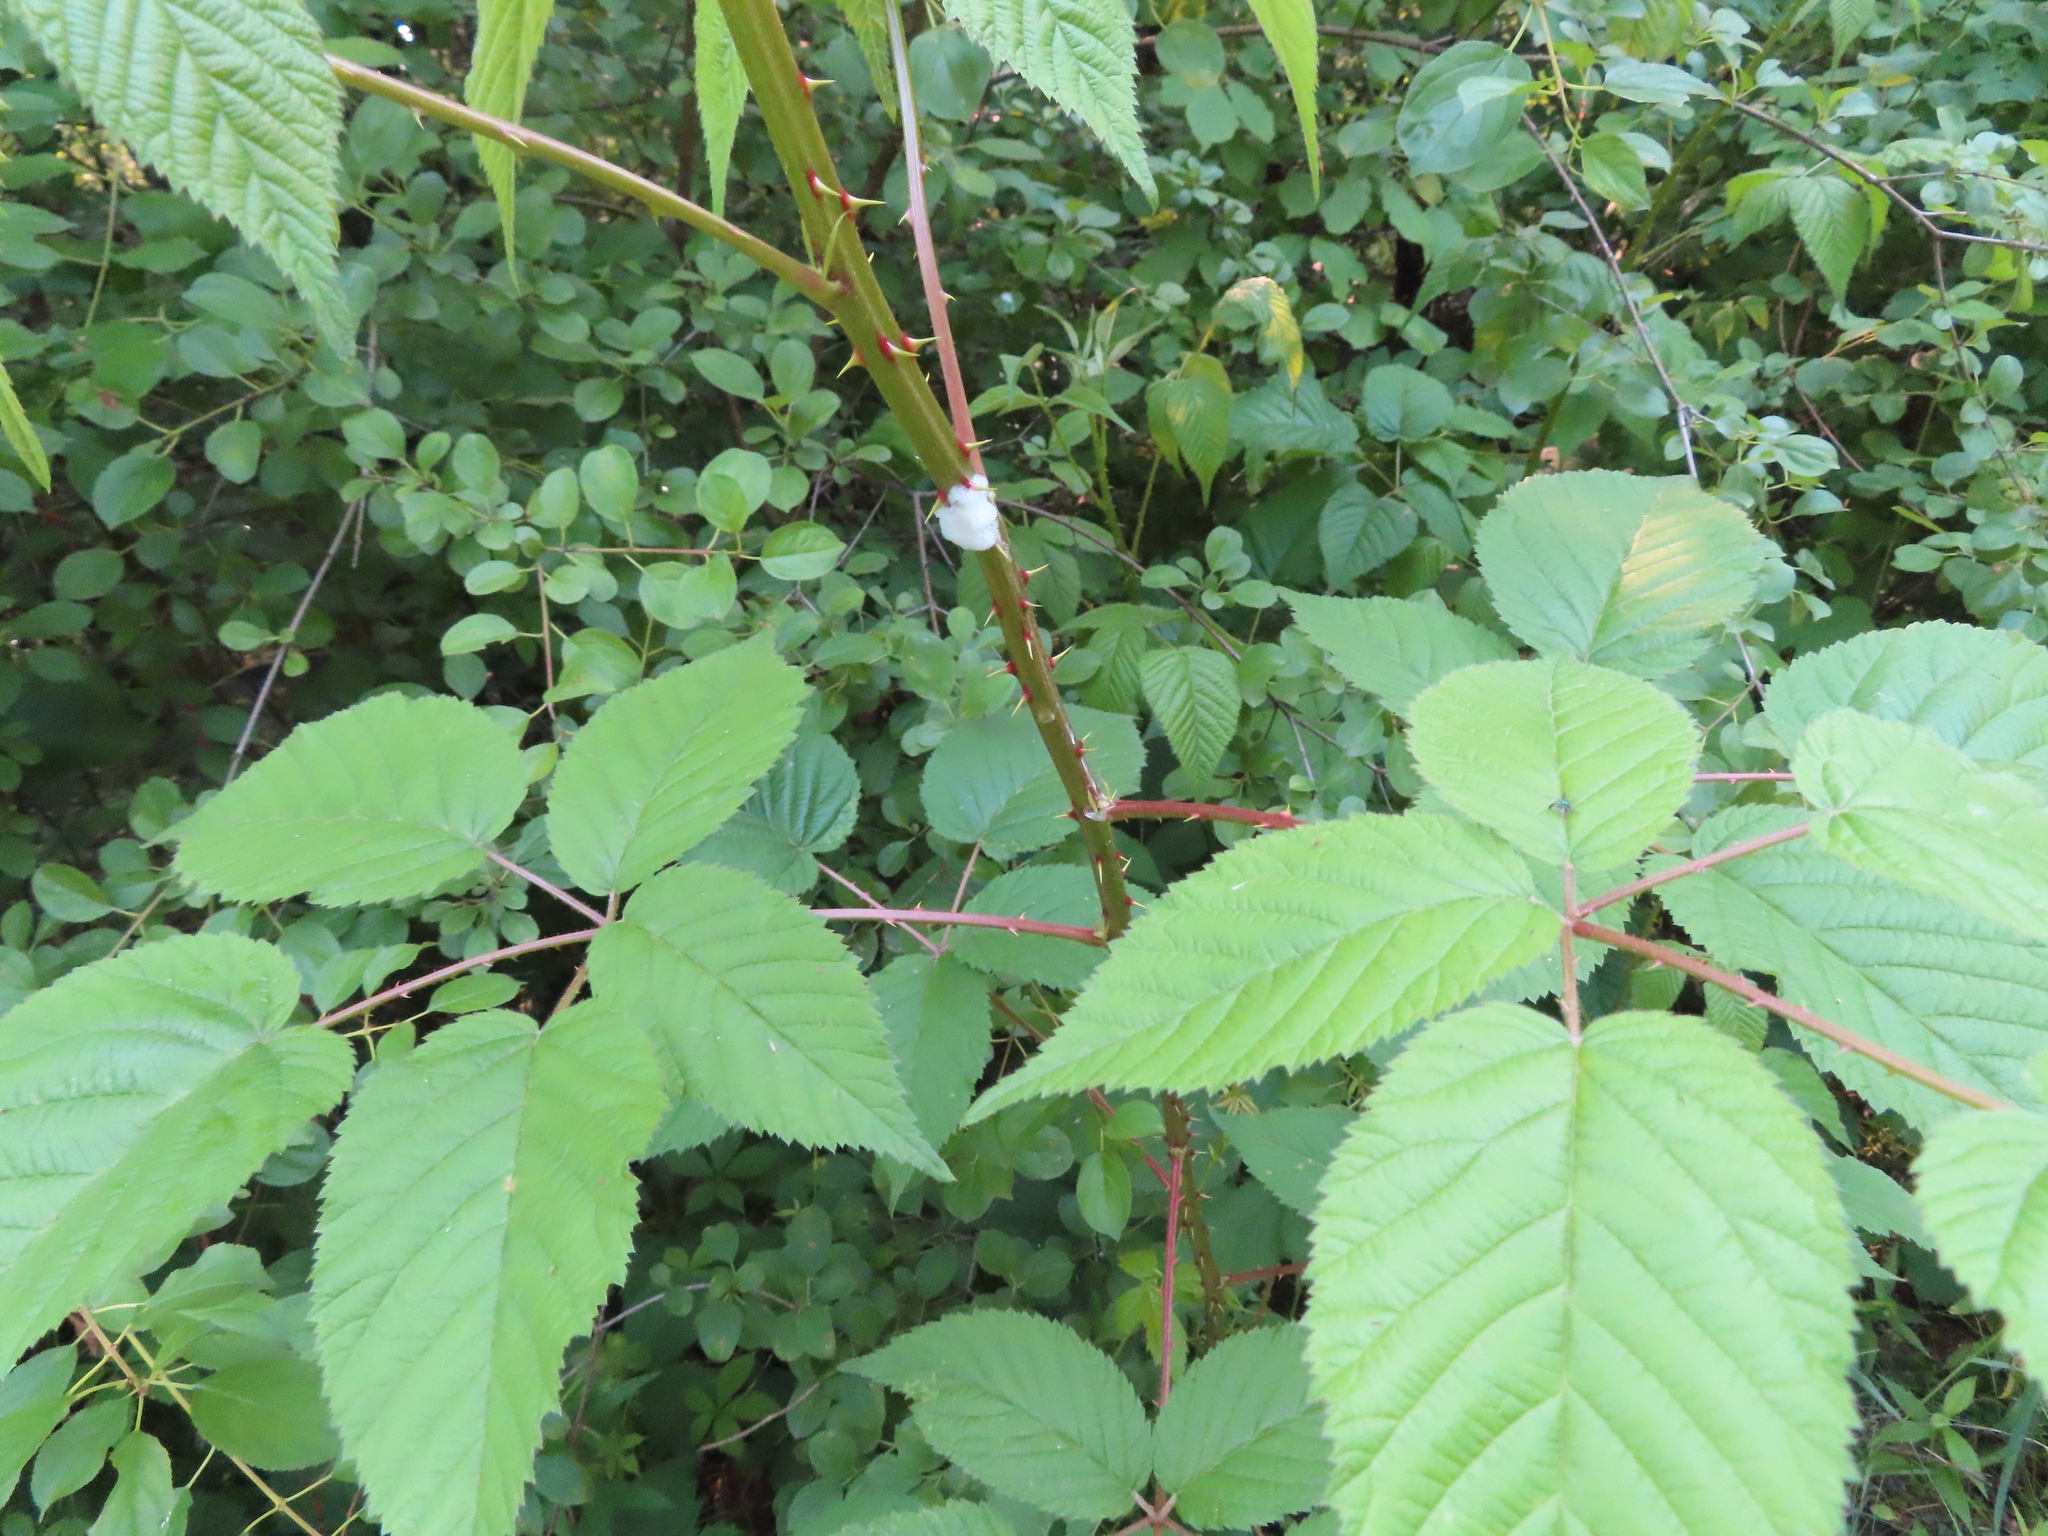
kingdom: Plantae
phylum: Tracheophyta
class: Magnoliopsida
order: Rosales
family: Rosaceae
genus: Rubus
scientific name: Rubus allegheniensis
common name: Allegheny blackberry
